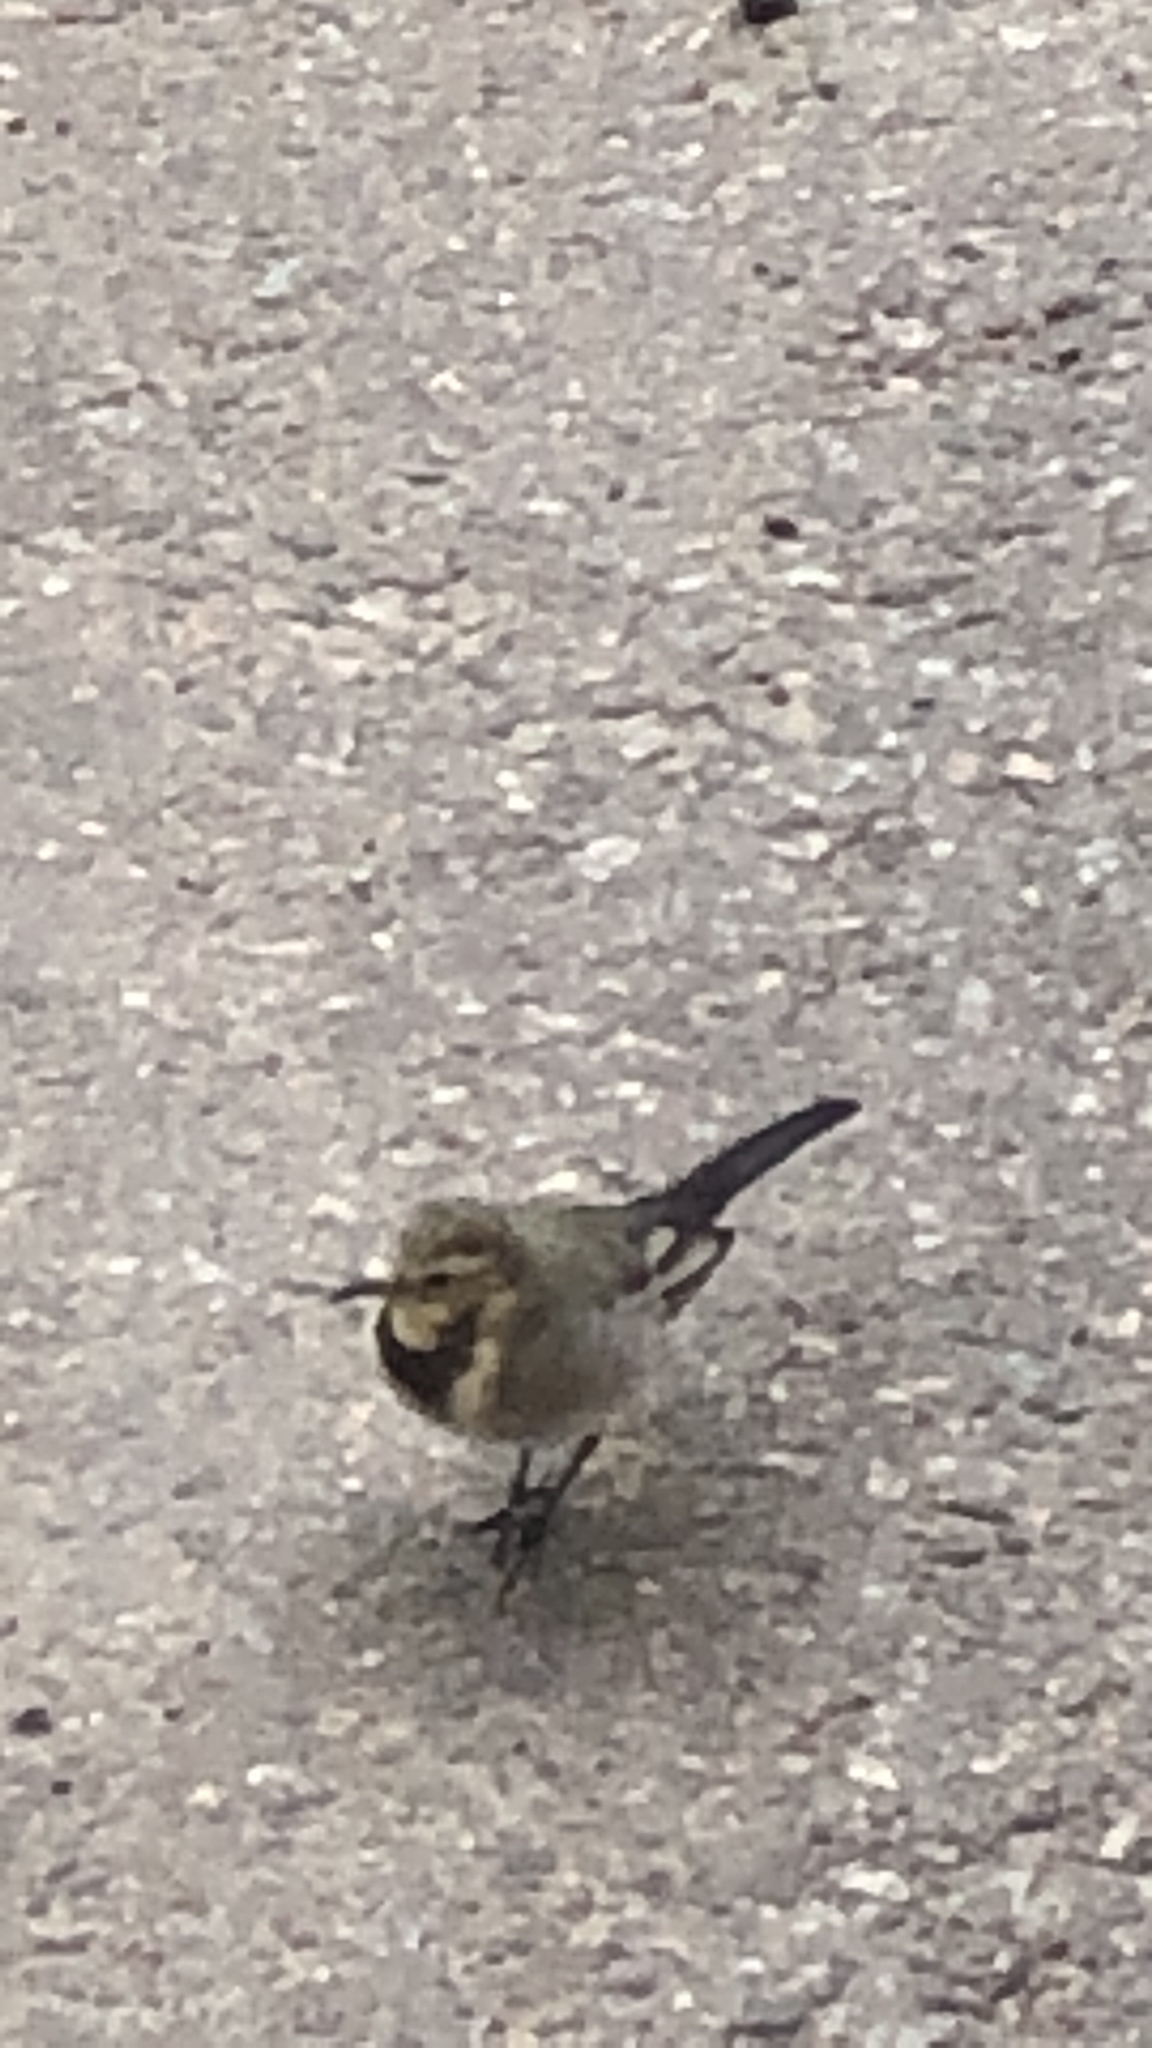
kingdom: Animalia
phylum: Chordata
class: Aves
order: Passeriformes
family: Motacillidae
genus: Motacilla
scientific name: Motacilla alba
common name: White wagtail
